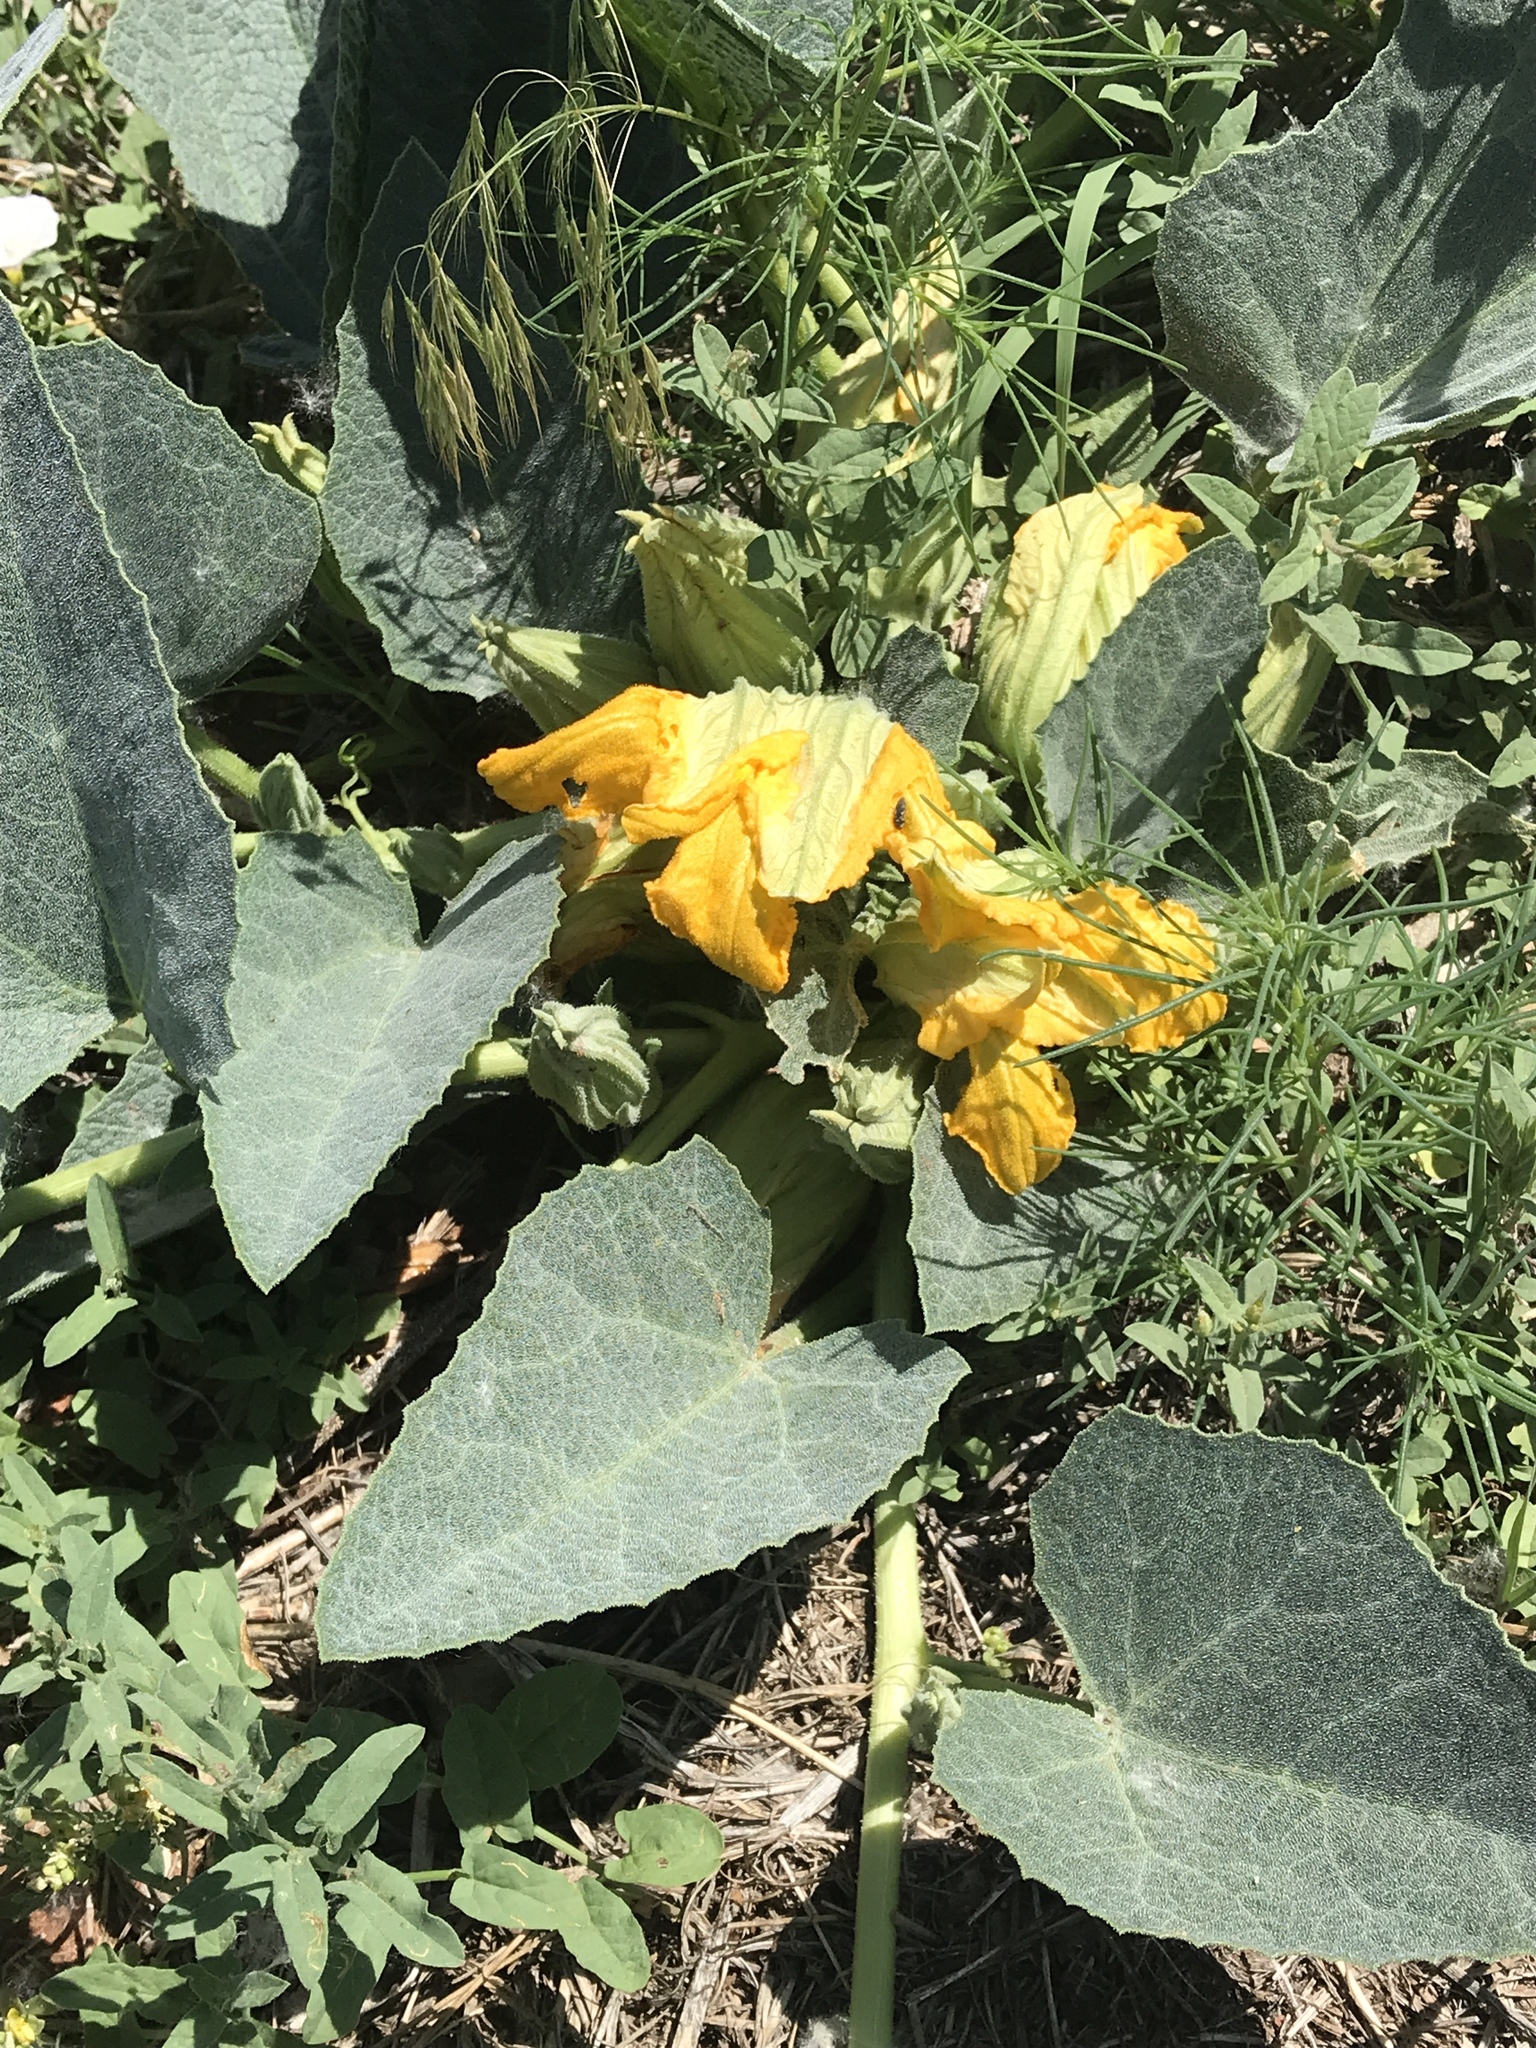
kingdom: Plantae
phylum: Tracheophyta
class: Magnoliopsida
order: Cucurbitales
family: Cucurbitaceae
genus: Cucurbita
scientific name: Cucurbita foetidissima
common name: Buffalo gourd
